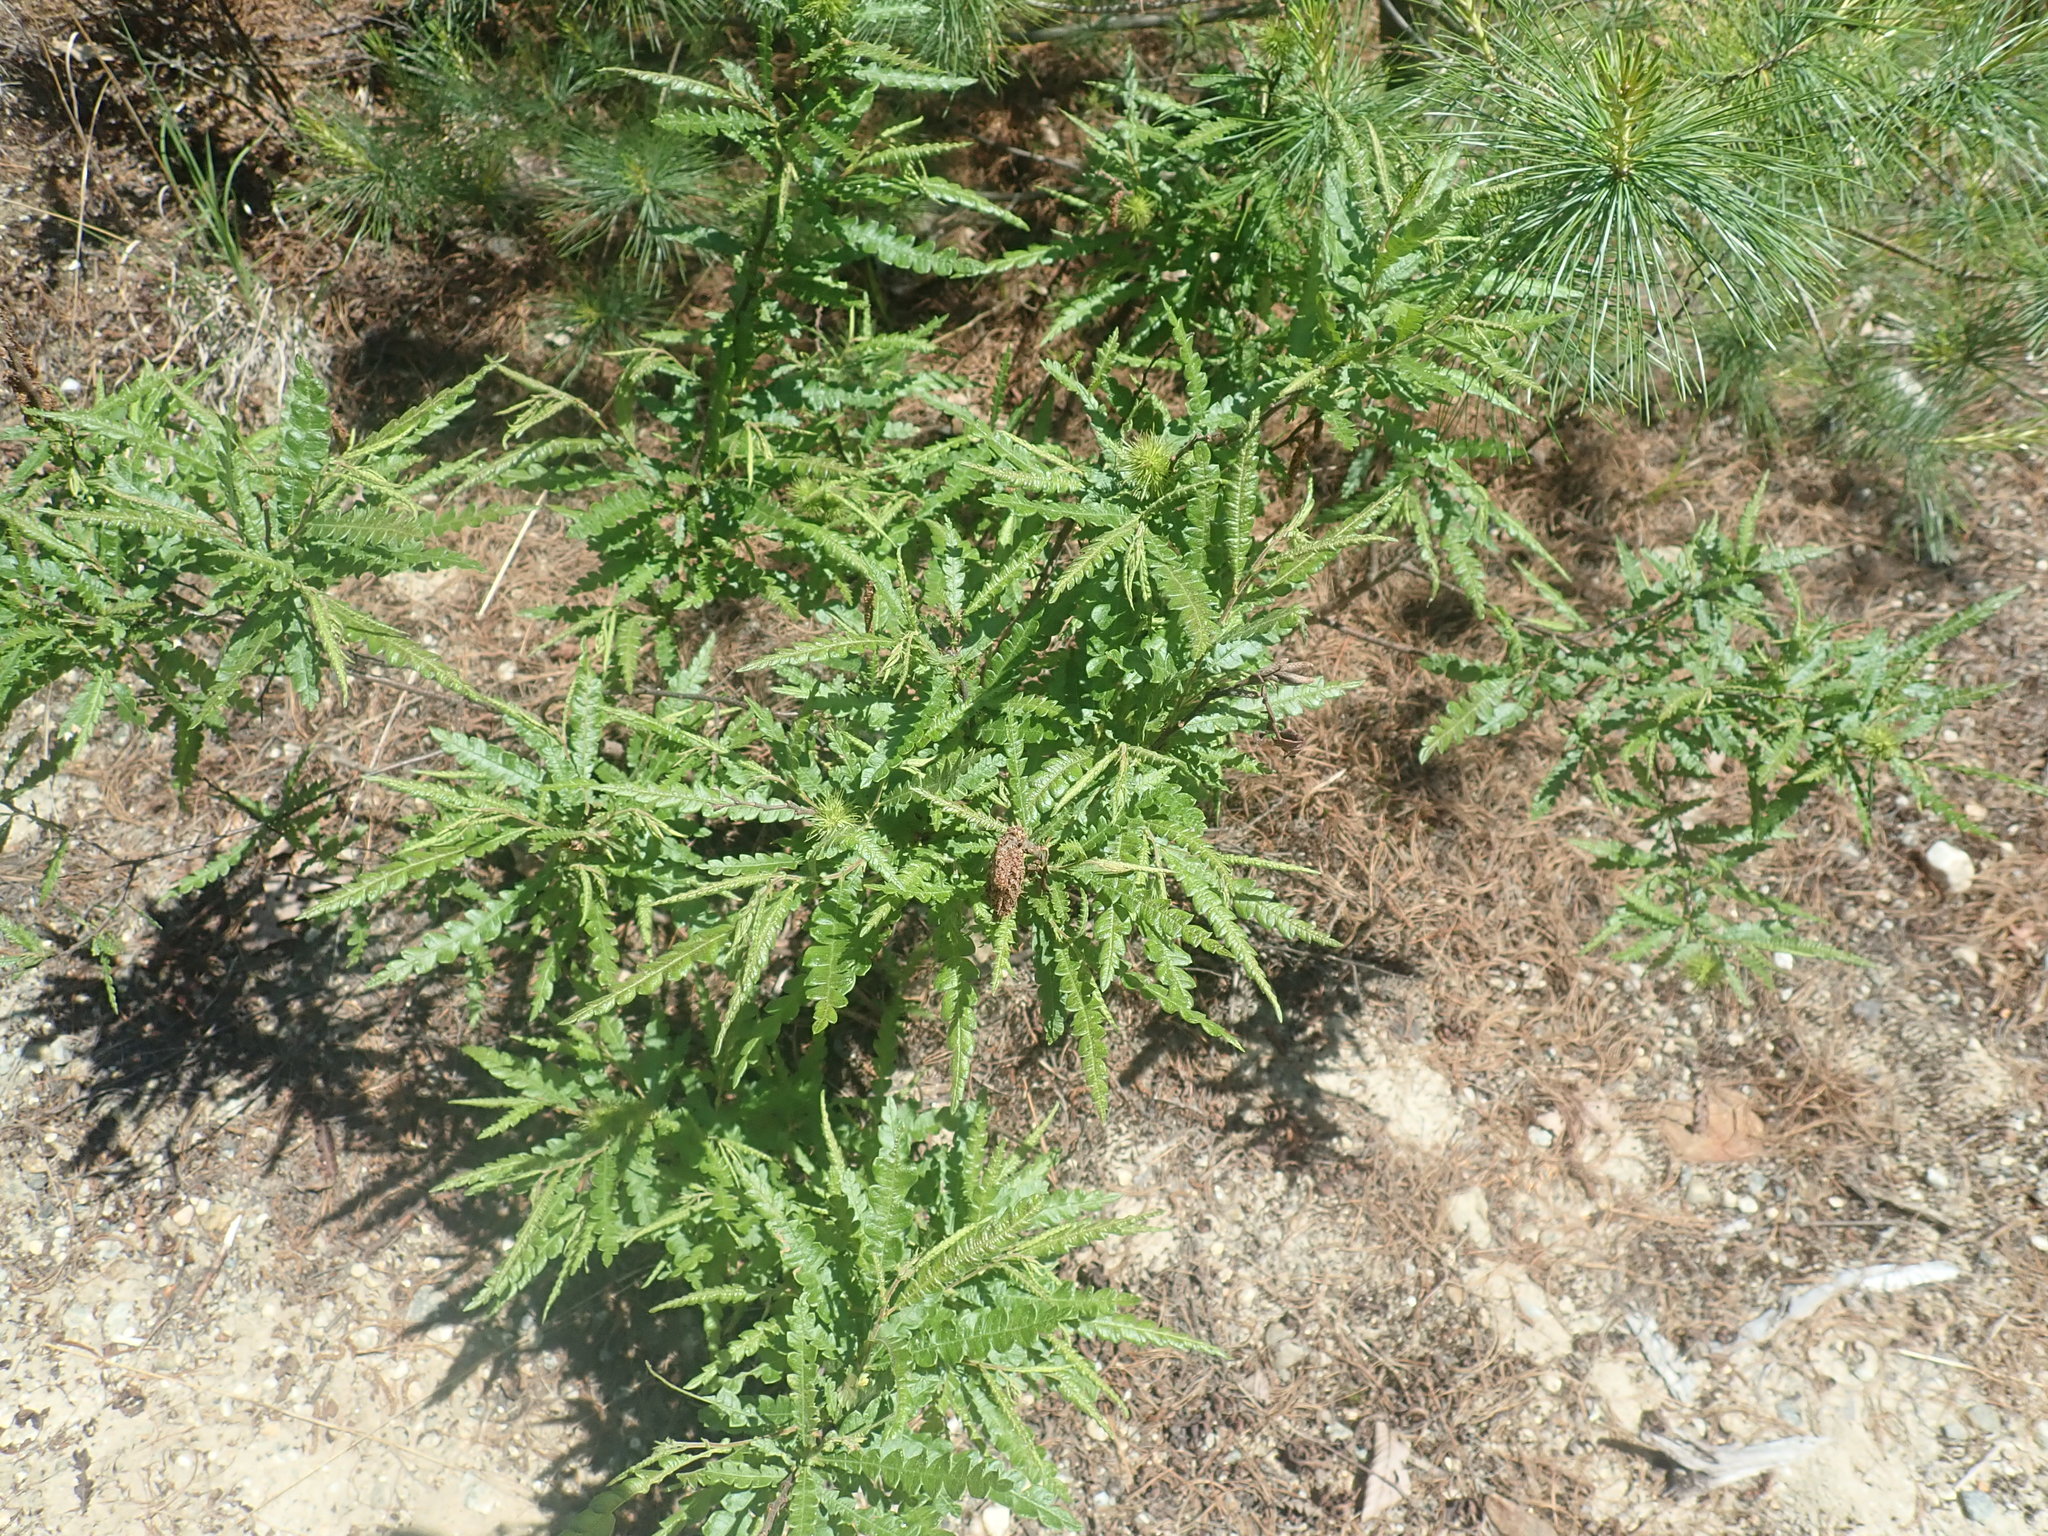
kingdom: Plantae
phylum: Tracheophyta
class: Magnoliopsida
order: Fagales
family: Myricaceae
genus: Comptonia
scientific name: Comptonia peregrina
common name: Sweet-fern
